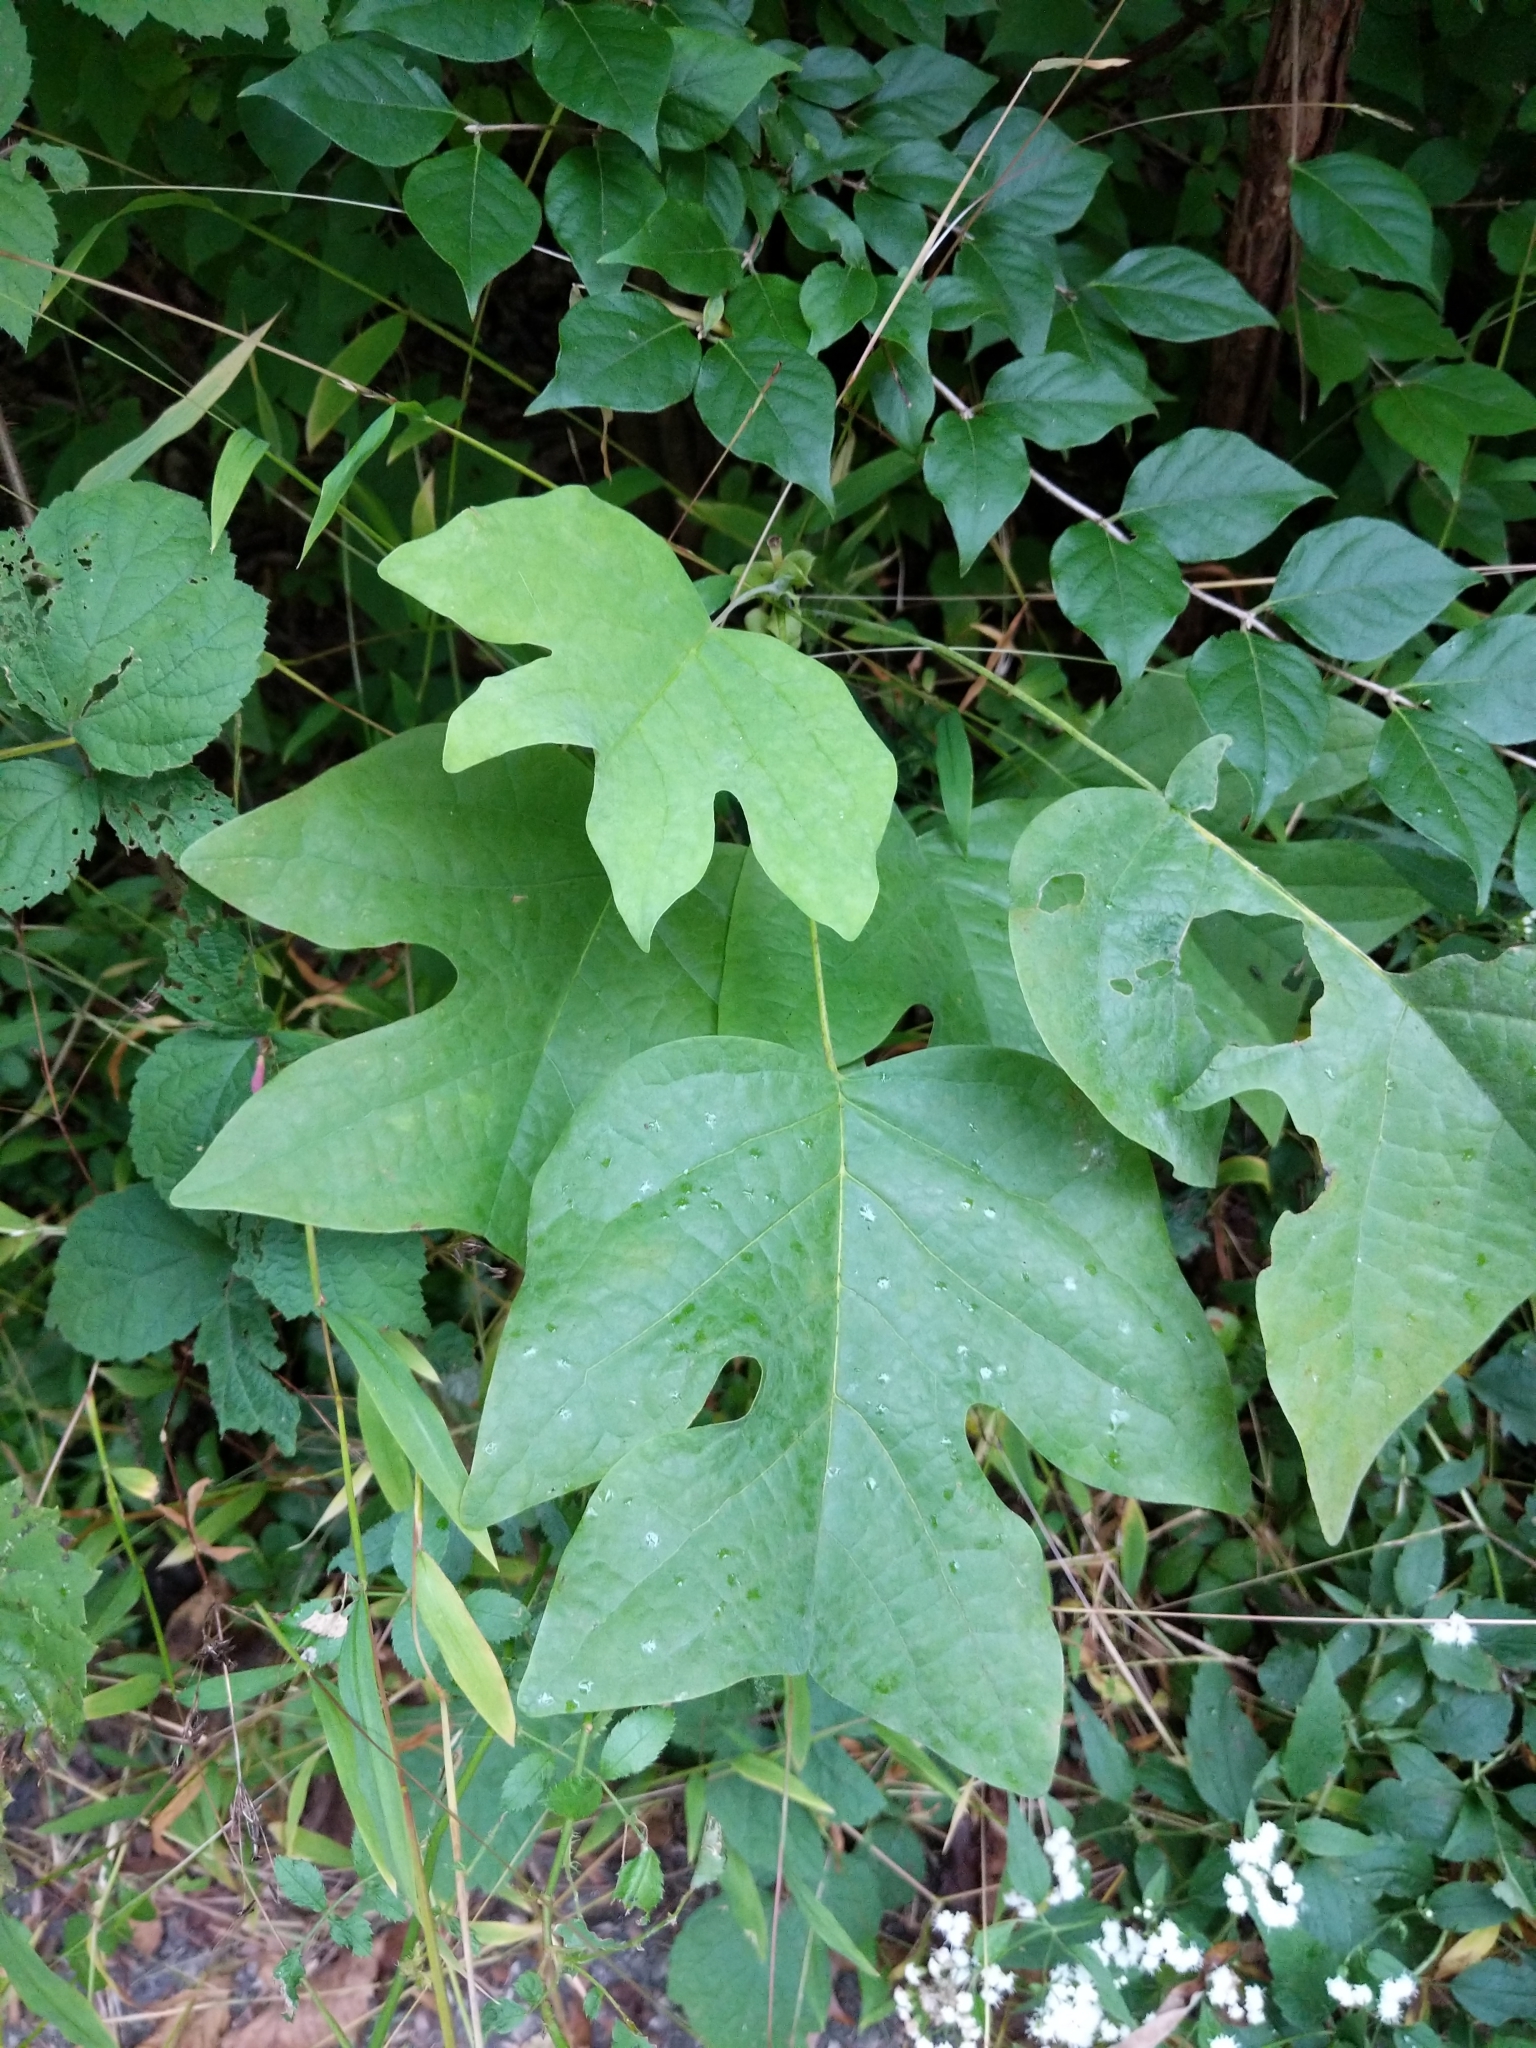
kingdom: Plantae
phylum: Tracheophyta
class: Magnoliopsida
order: Magnoliales
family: Magnoliaceae
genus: Liriodendron
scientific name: Liriodendron tulipifera
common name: Tulip tree
